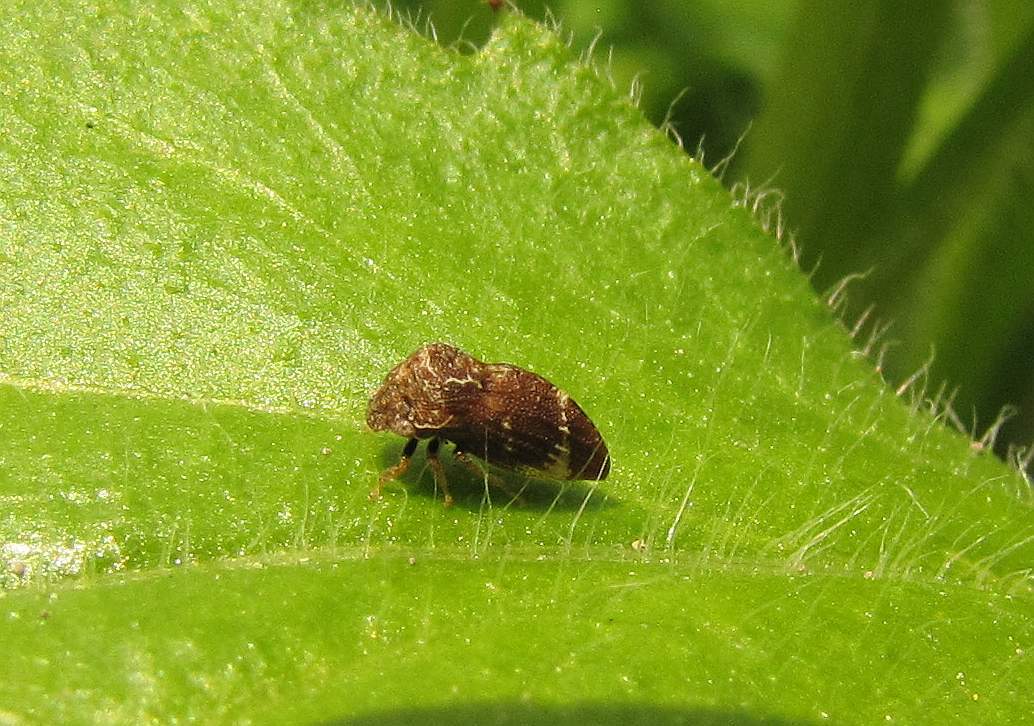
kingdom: Animalia
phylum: Arthropoda
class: Insecta
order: Hemiptera
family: Membracidae
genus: Publilia
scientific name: Publilia concava
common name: Aster treehopper
